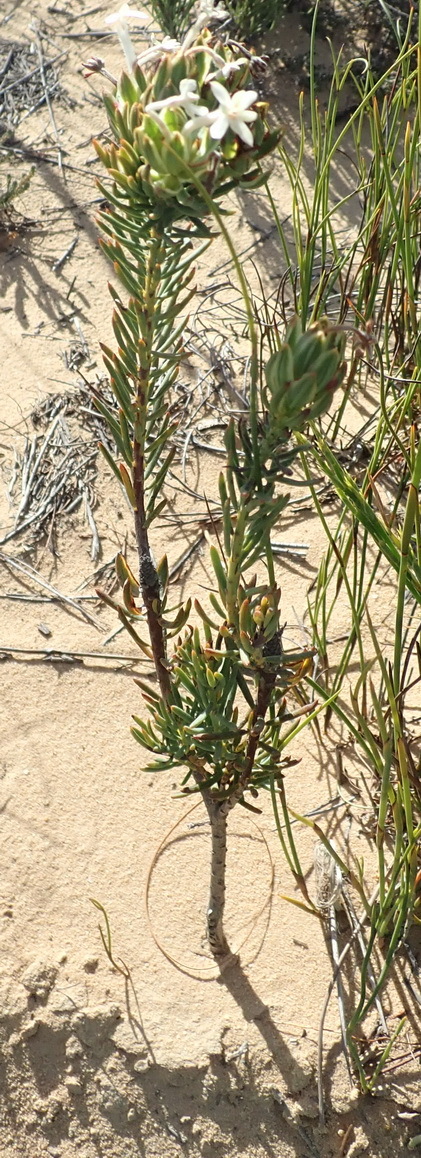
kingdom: Plantae
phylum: Tracheophyta
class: Magnoliopsida
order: Malvales
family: Thymelaeaceae
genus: Gnidia
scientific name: Gnidia pinifolia
